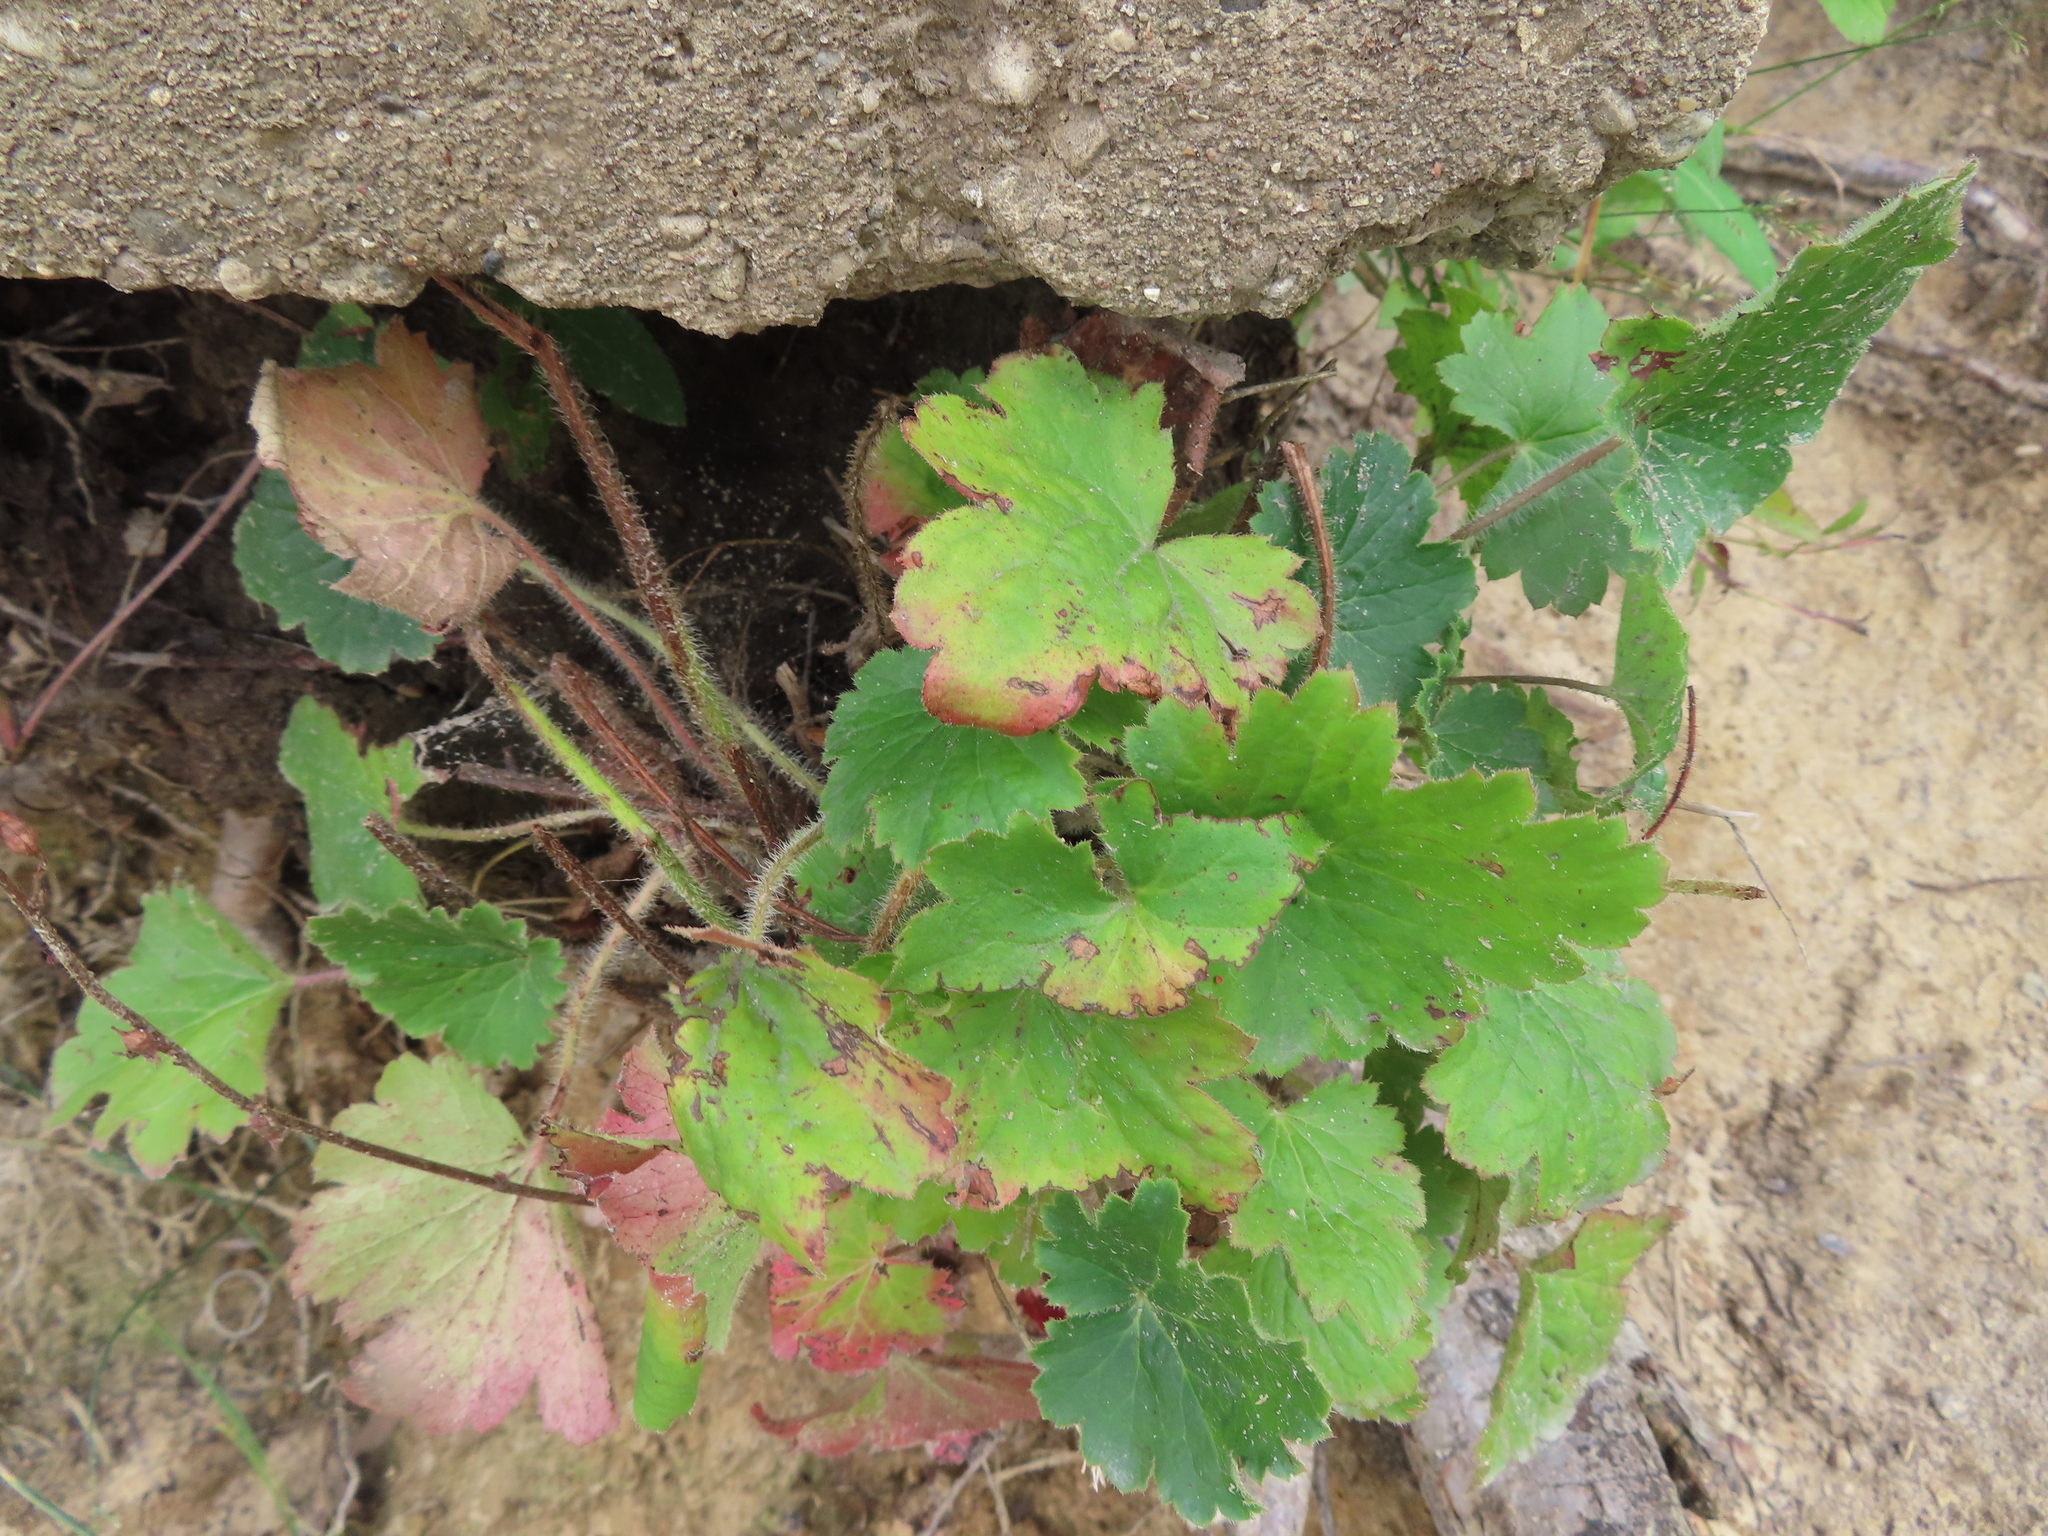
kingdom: Plantae
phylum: Tracheophyta
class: Magnoliopsida
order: Saxifragales
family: Saxifragaceae
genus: Heuchera
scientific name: Heuchera richardsonii
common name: Richardson's alumroot
